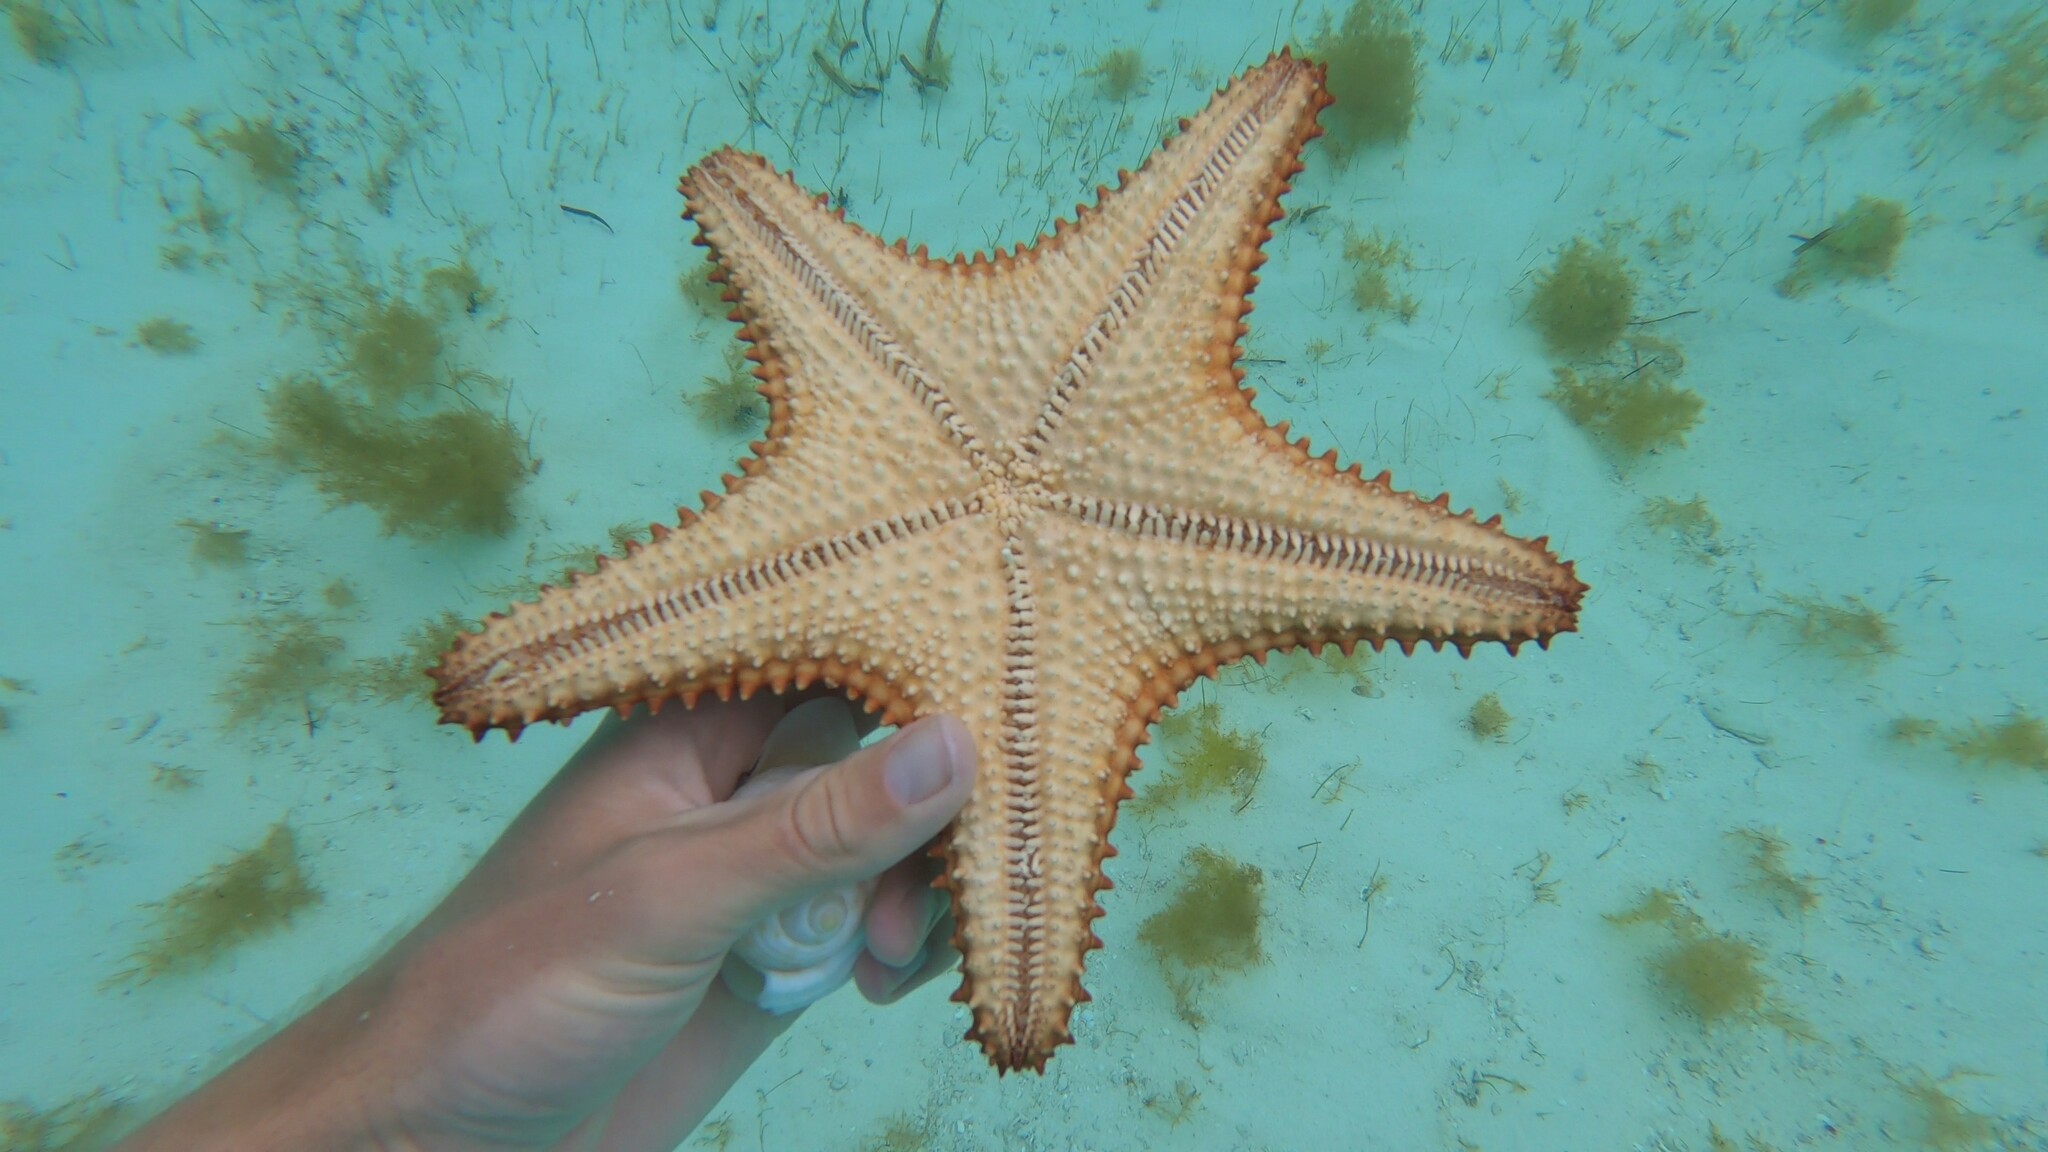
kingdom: Animalia
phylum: Echinodermata
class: Asteroidea
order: Valvatida
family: Oreasteridae
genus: Oreaster
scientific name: Oreaster reticulatus
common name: Cushion sea star
